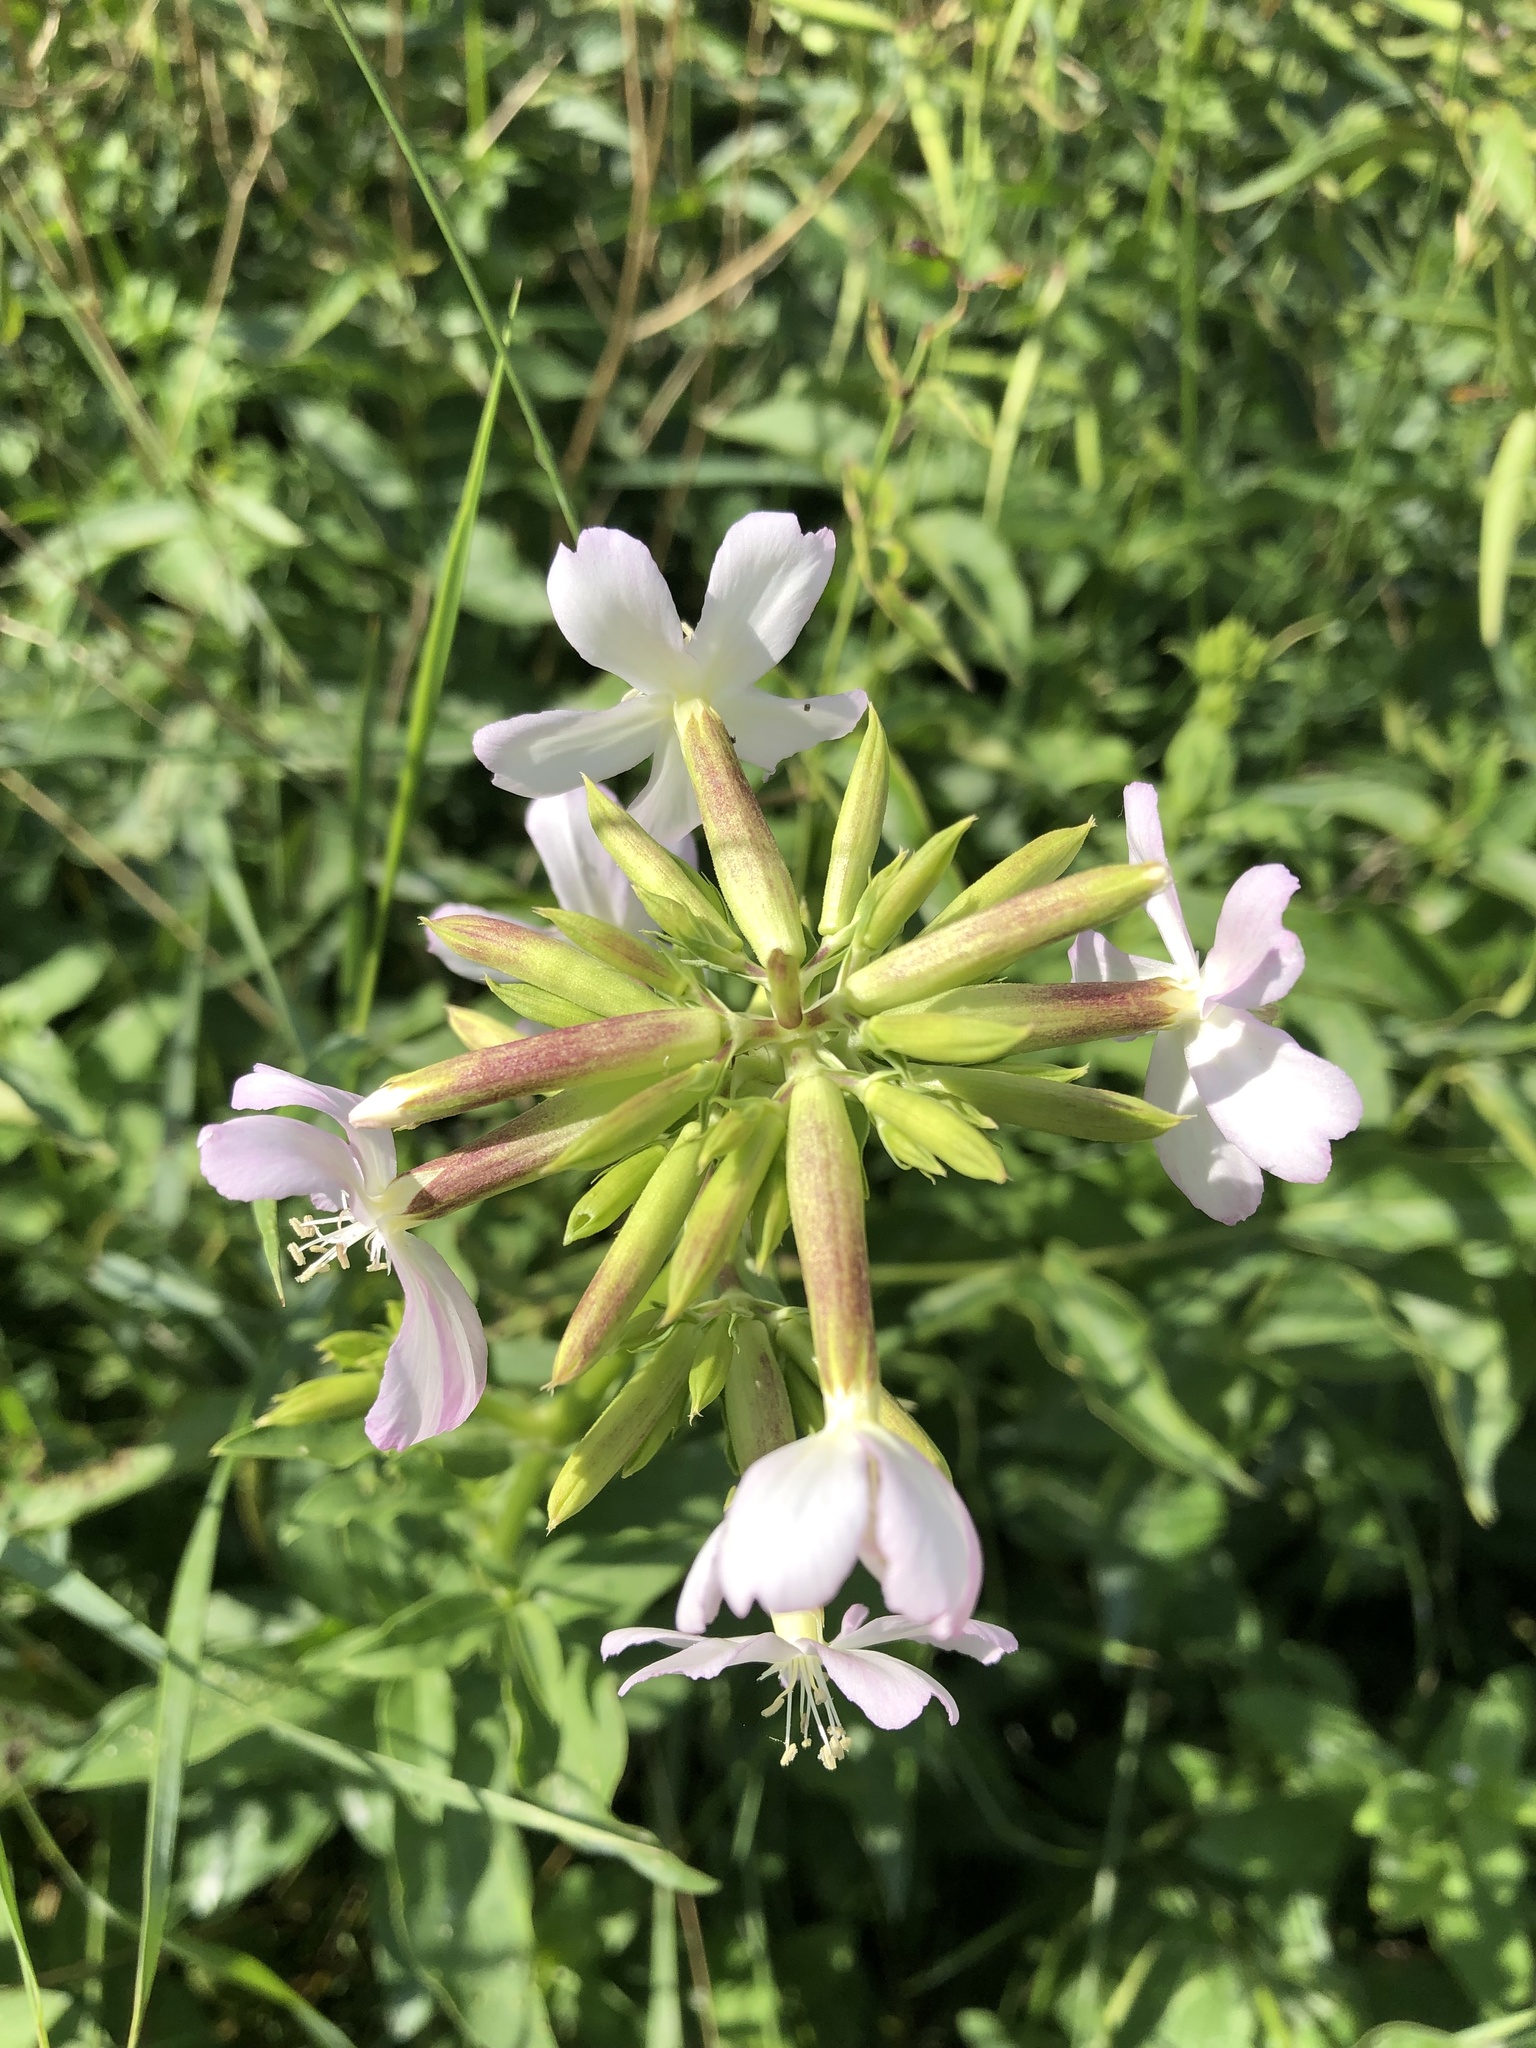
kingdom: Plantae
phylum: Tracheophyta
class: Magnoliopsida
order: Caryophyllales
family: Caryophyllaceae
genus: Saponaria
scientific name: Saponaria officinalis
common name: Soapwort
